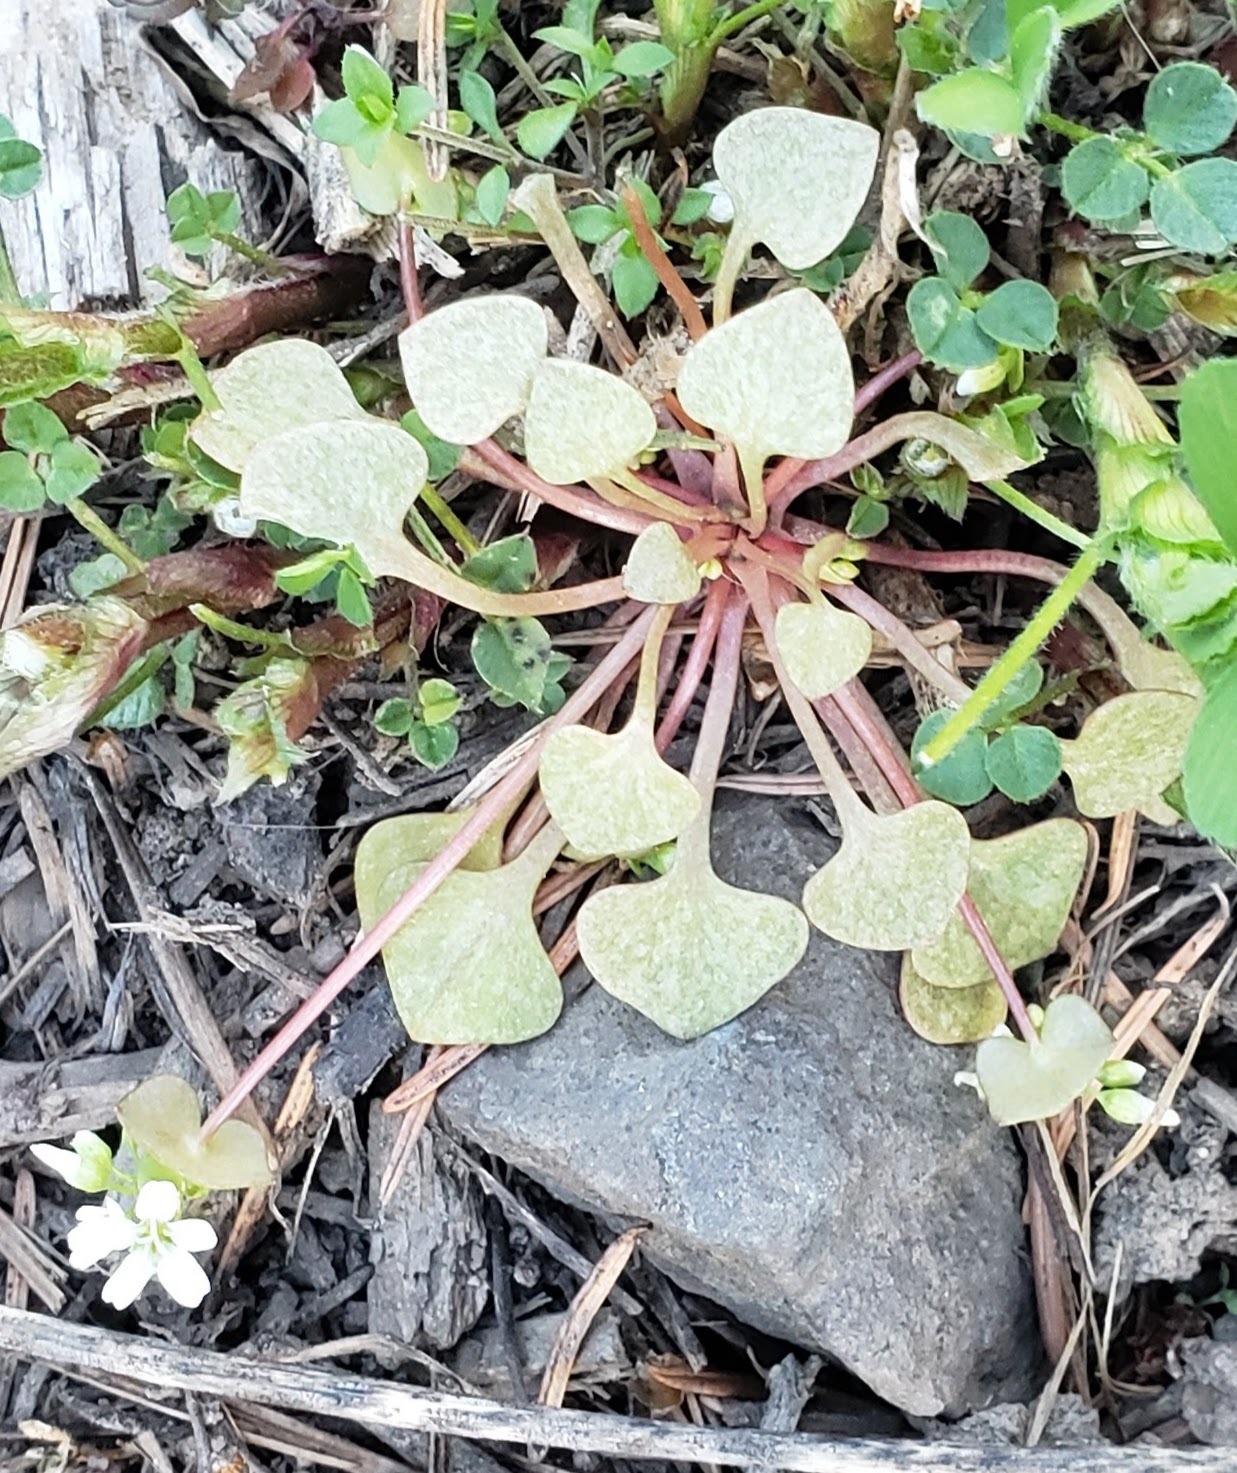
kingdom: Plantae
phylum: Tracheophyta
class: Magnoliopsida
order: Caryophyllales
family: Montiaceae
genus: Claytonia
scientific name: Claytonia rubra
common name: Erubescent miner's-lettuce
